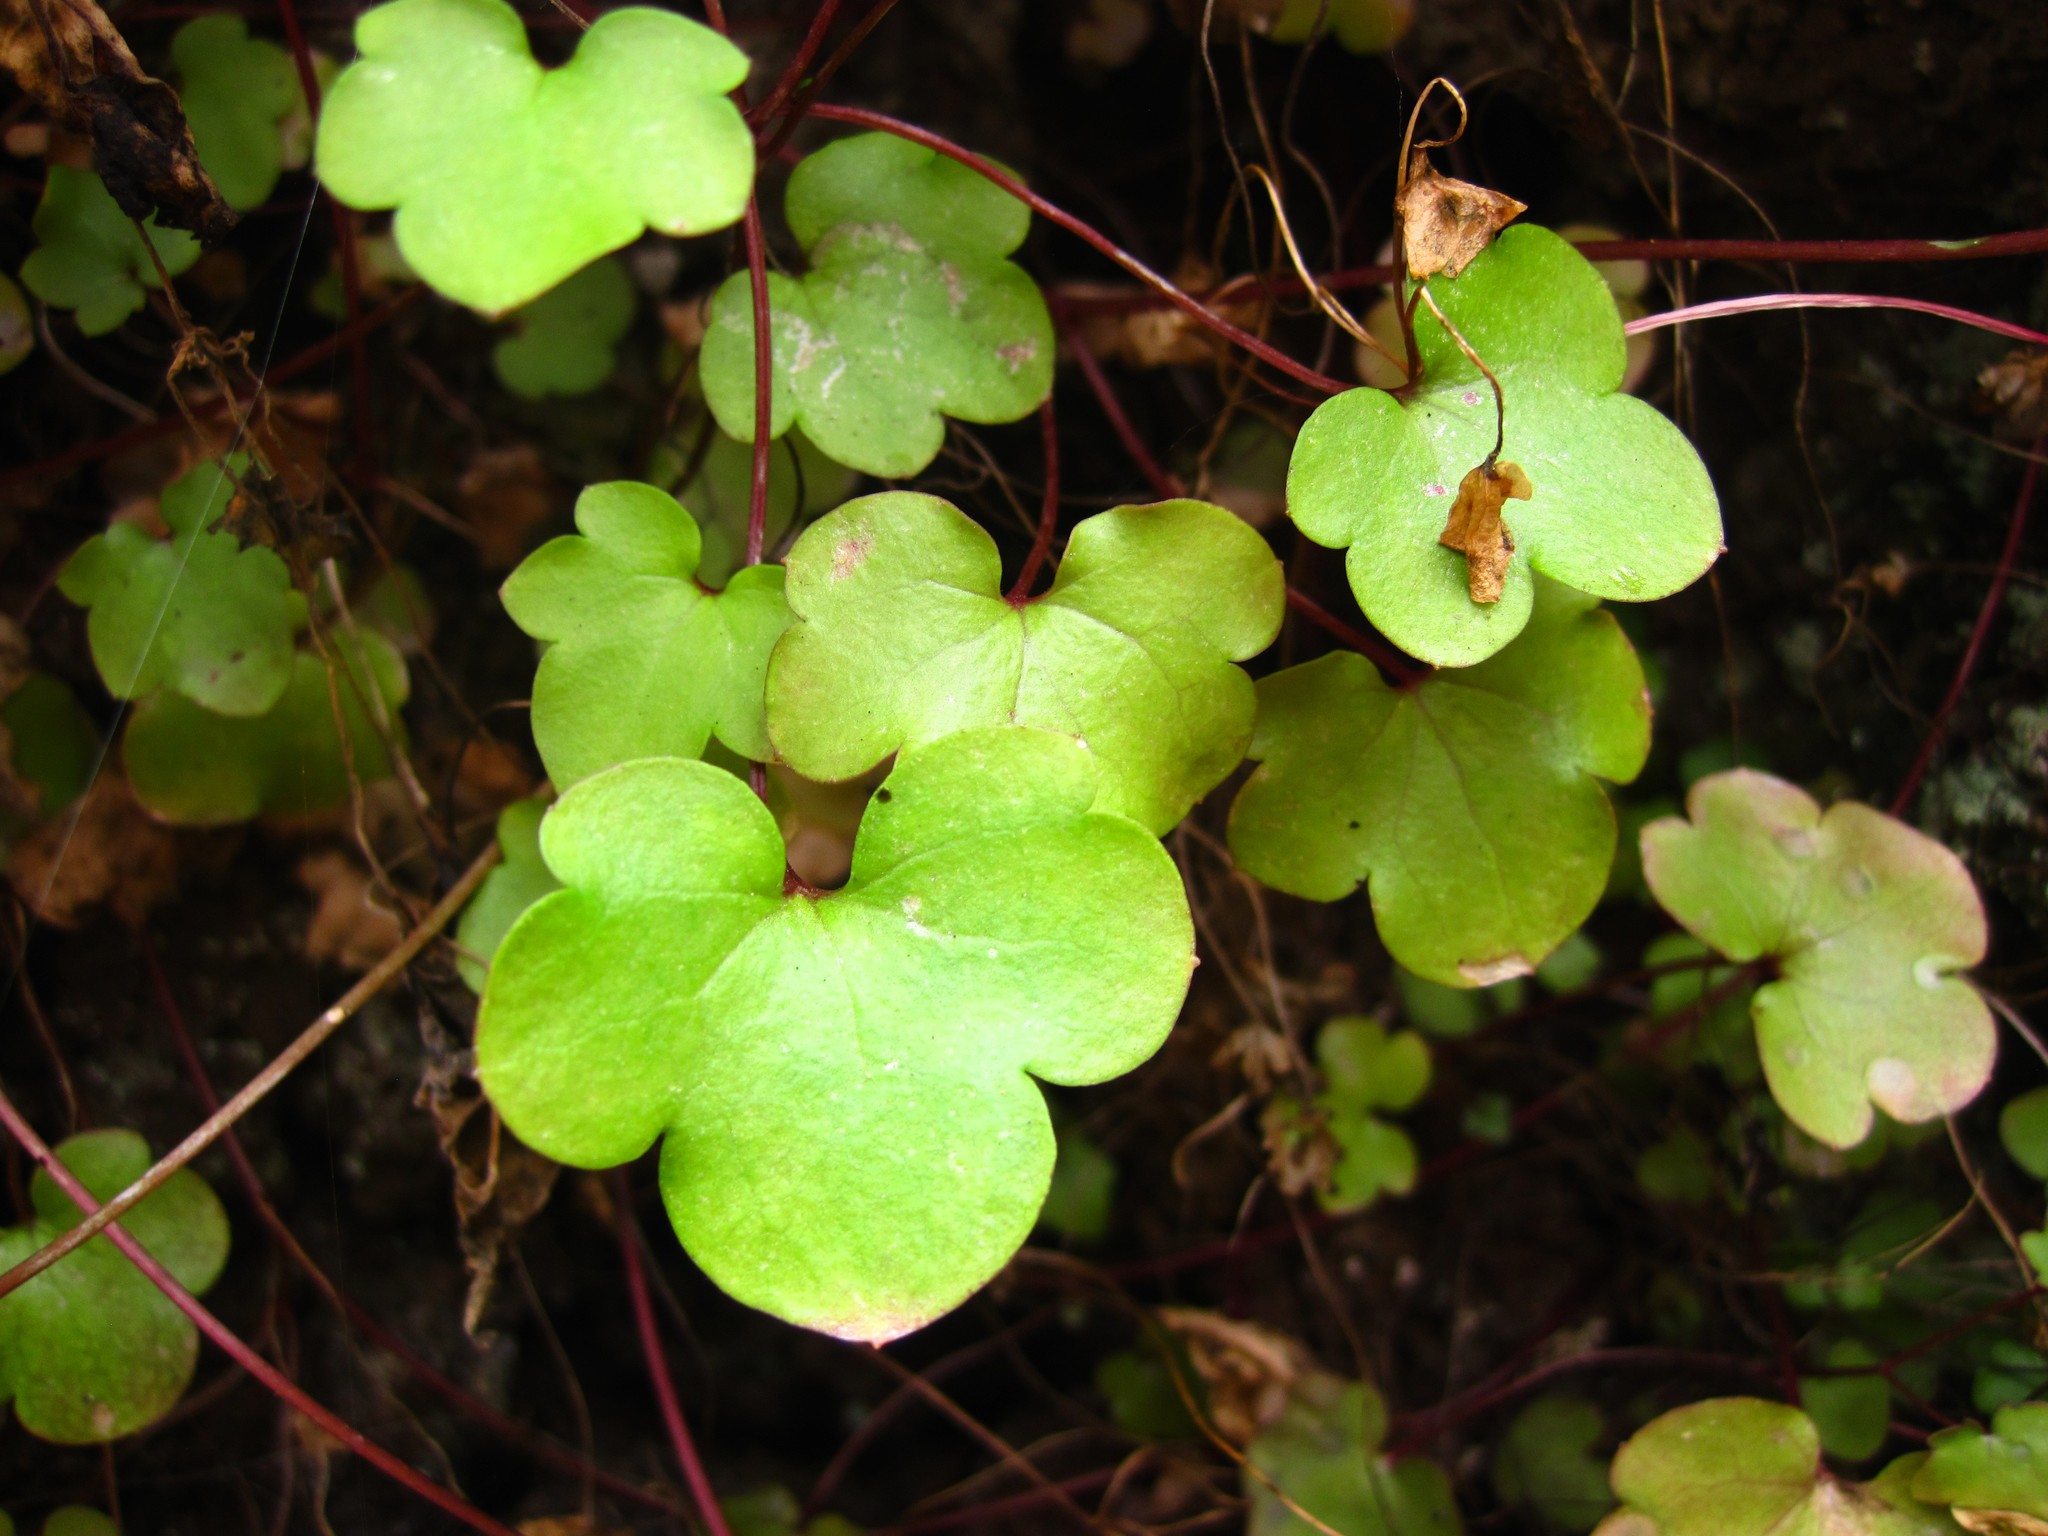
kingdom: Plantae
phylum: Tracheophyta
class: Magnoliopsida
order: Lamiales
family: Plantaginaceae
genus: Cymbalaria
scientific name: Cymbalaria muralis
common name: Ivy-leaved toadflax
